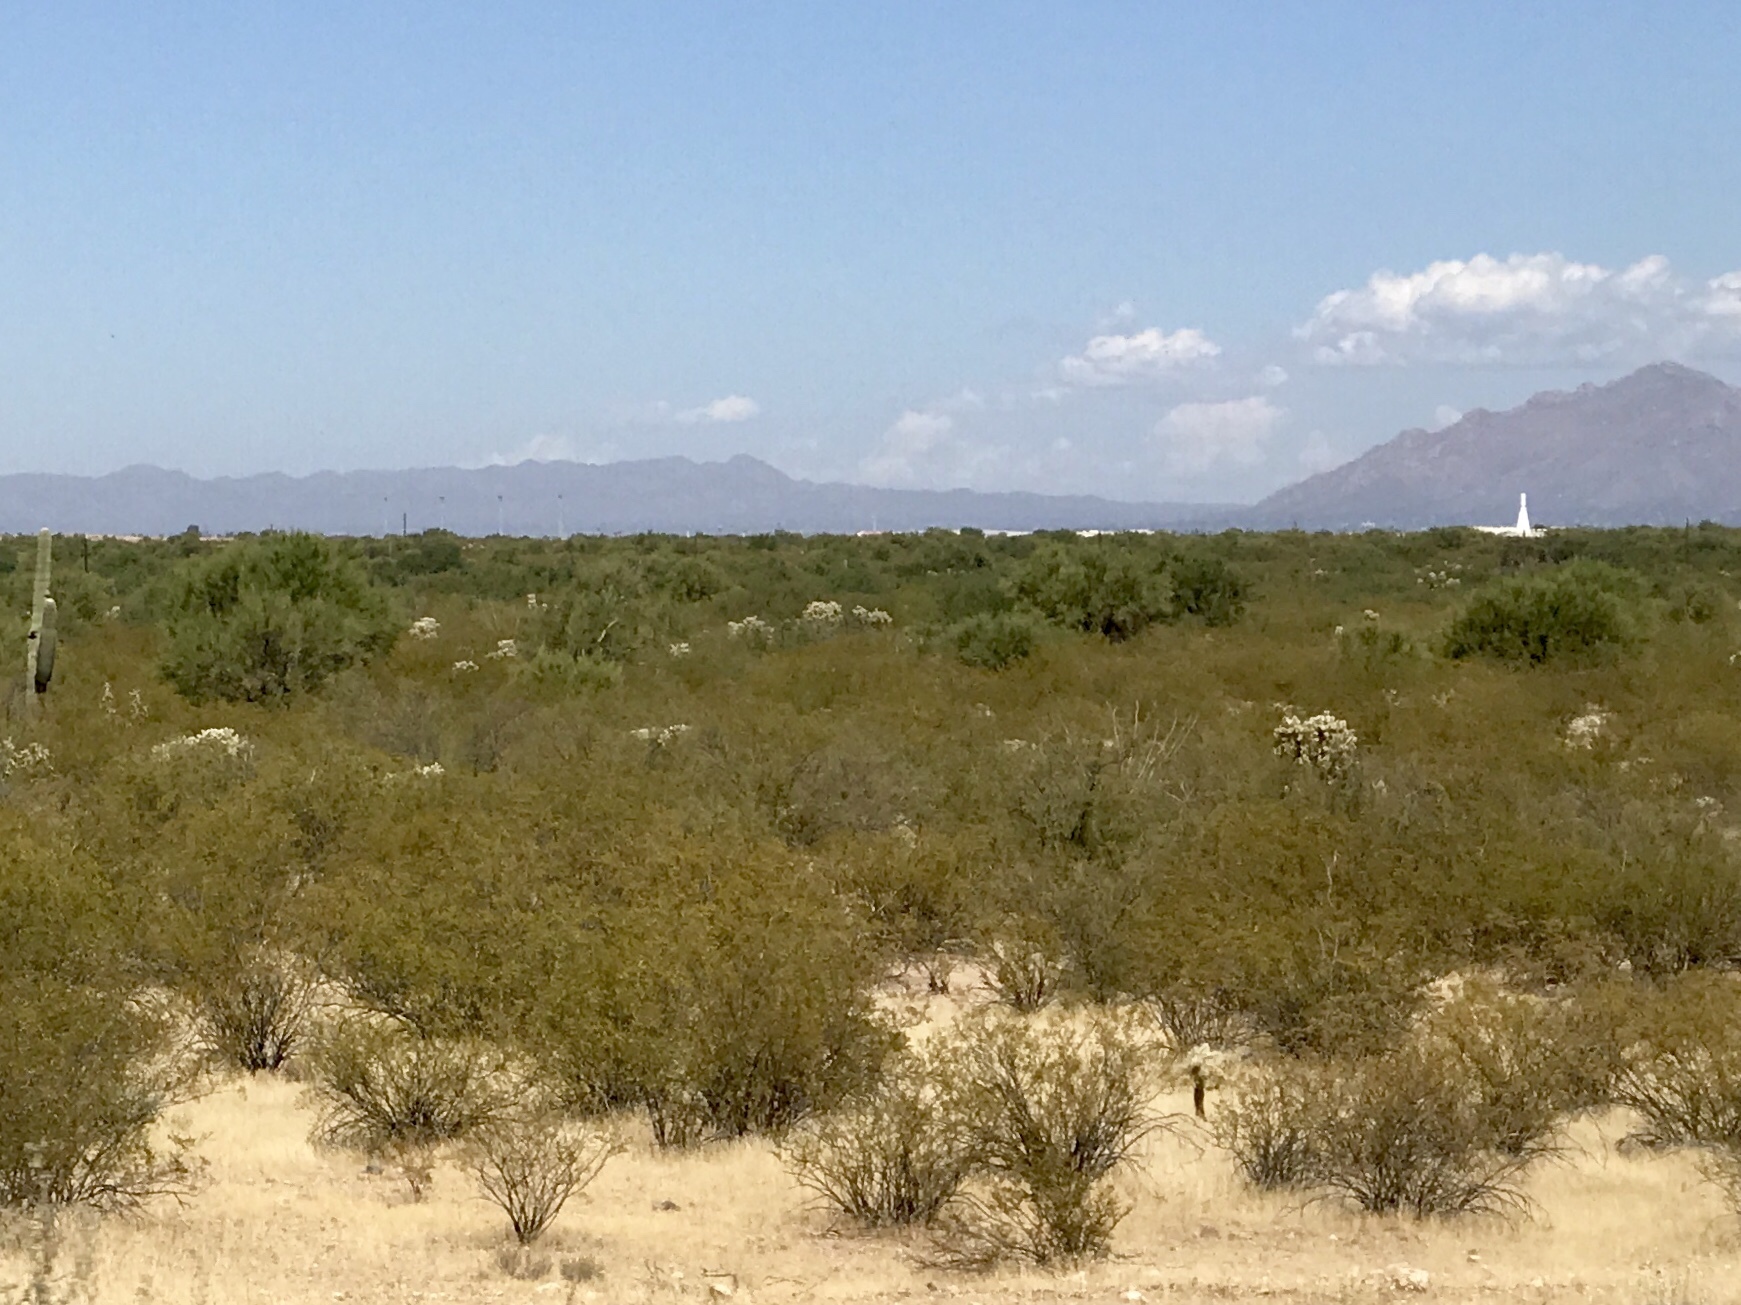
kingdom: Plantae
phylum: Tracheophyta
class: Magnoliopsida
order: Zygophyllales
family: Zygophyllaceae
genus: Larrea
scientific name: Larrea tridentata
